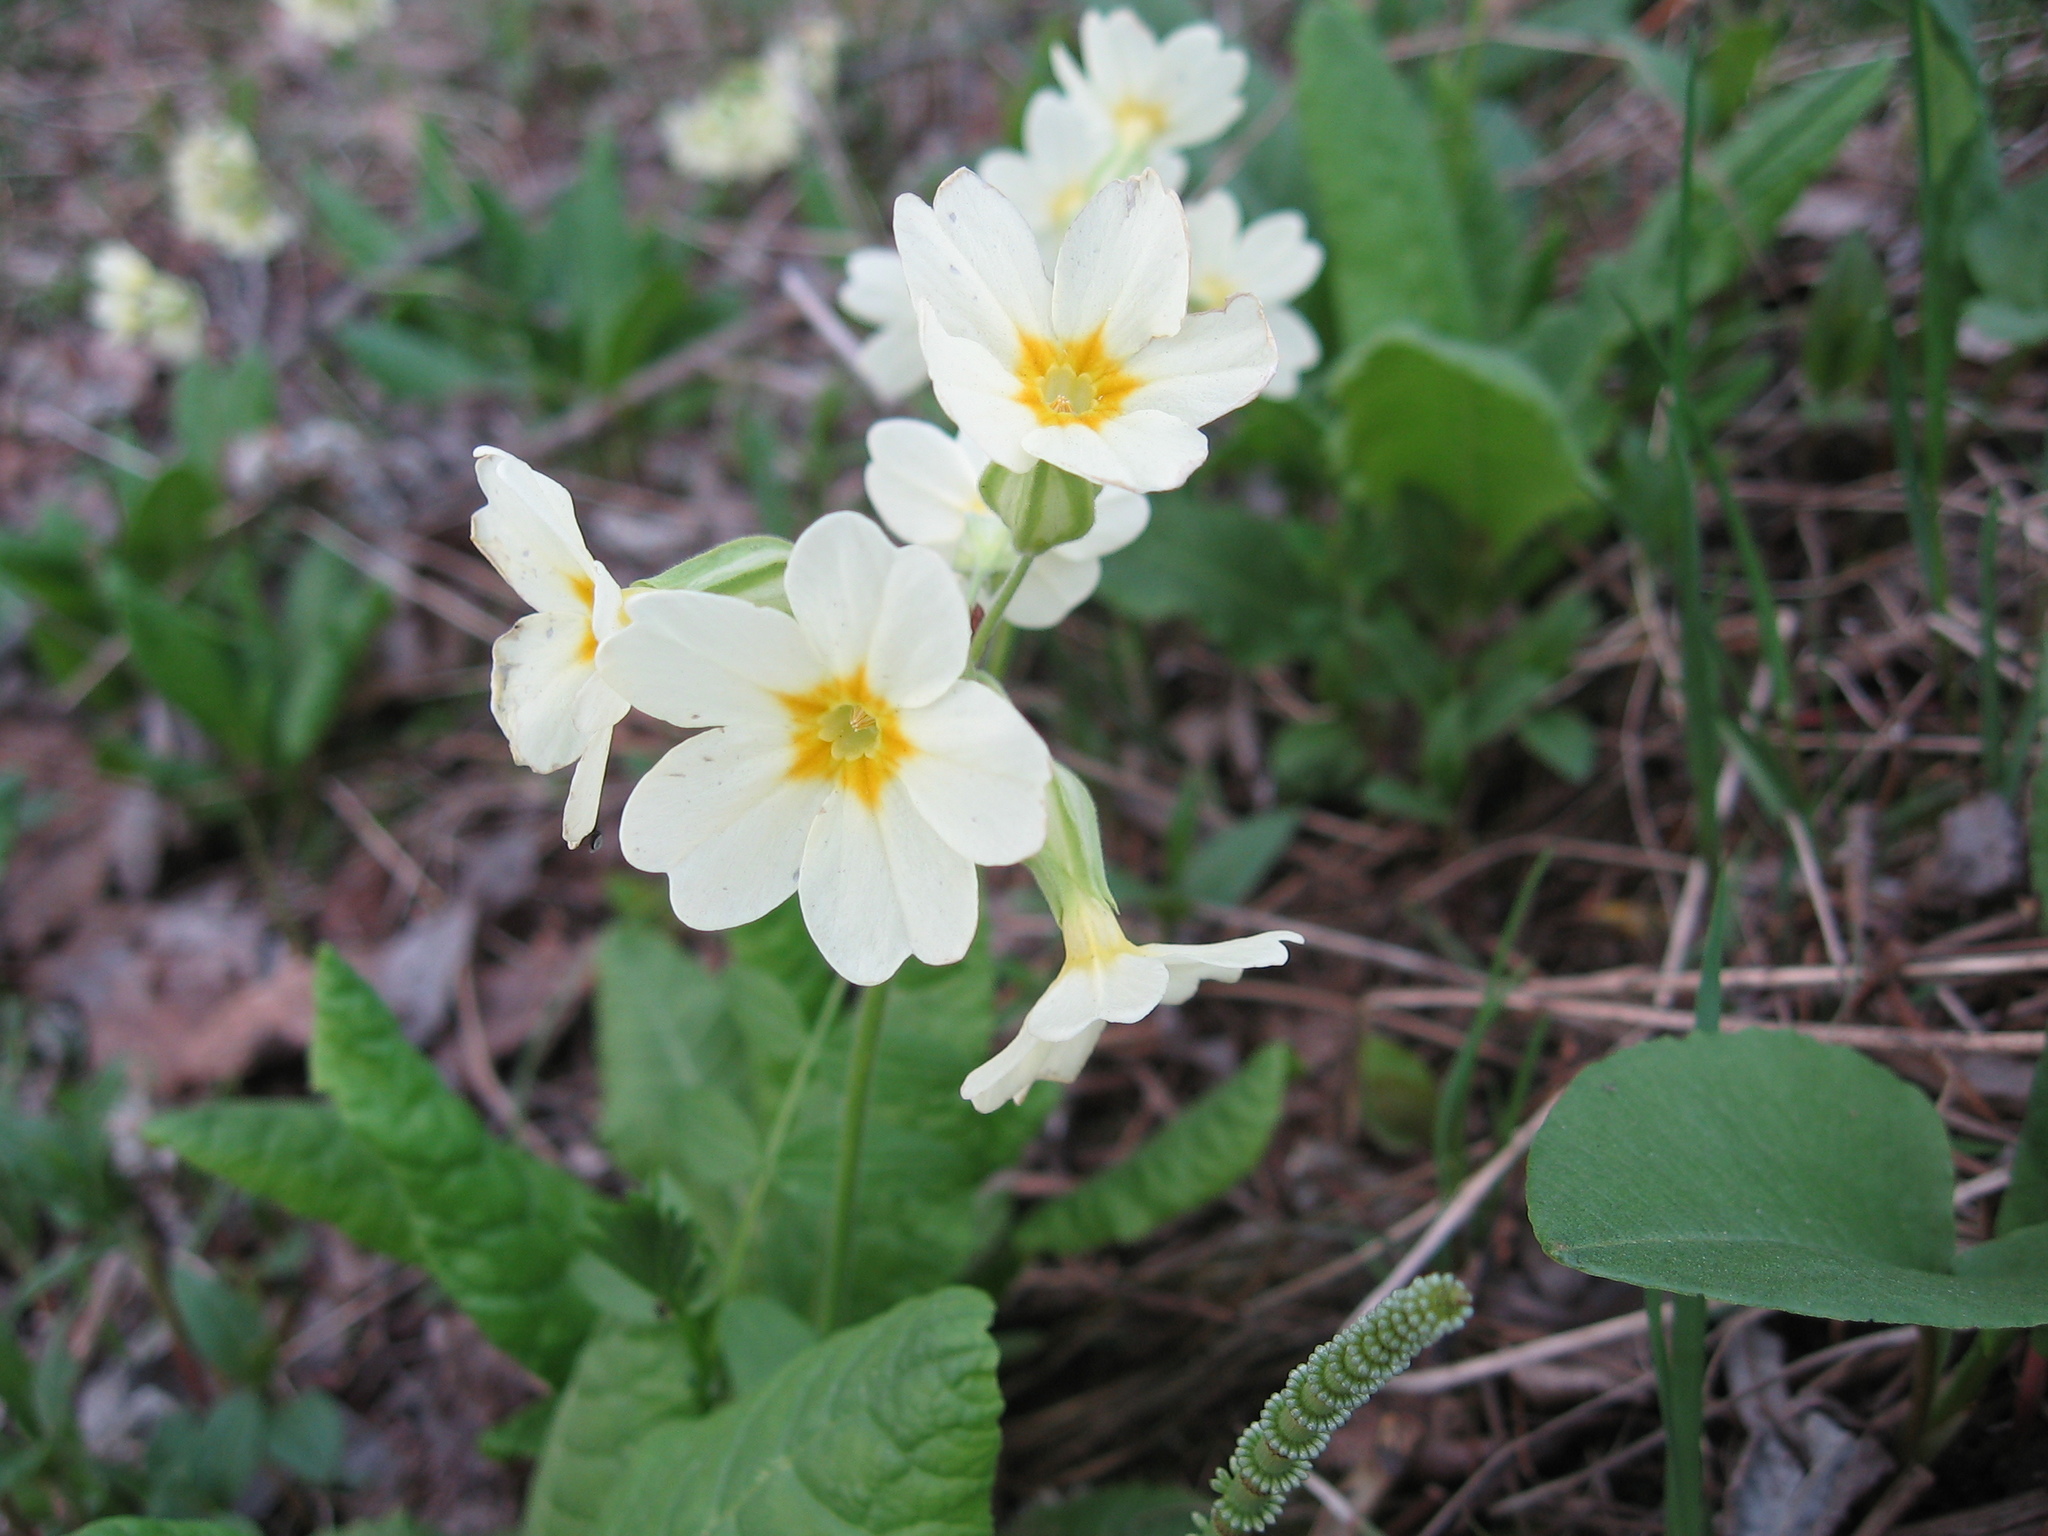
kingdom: Plantae
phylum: Tracheophyta
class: Magnoliopsida
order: Ericales
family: Primulaceae
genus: Primula
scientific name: Primula elatior
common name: Oxlip
